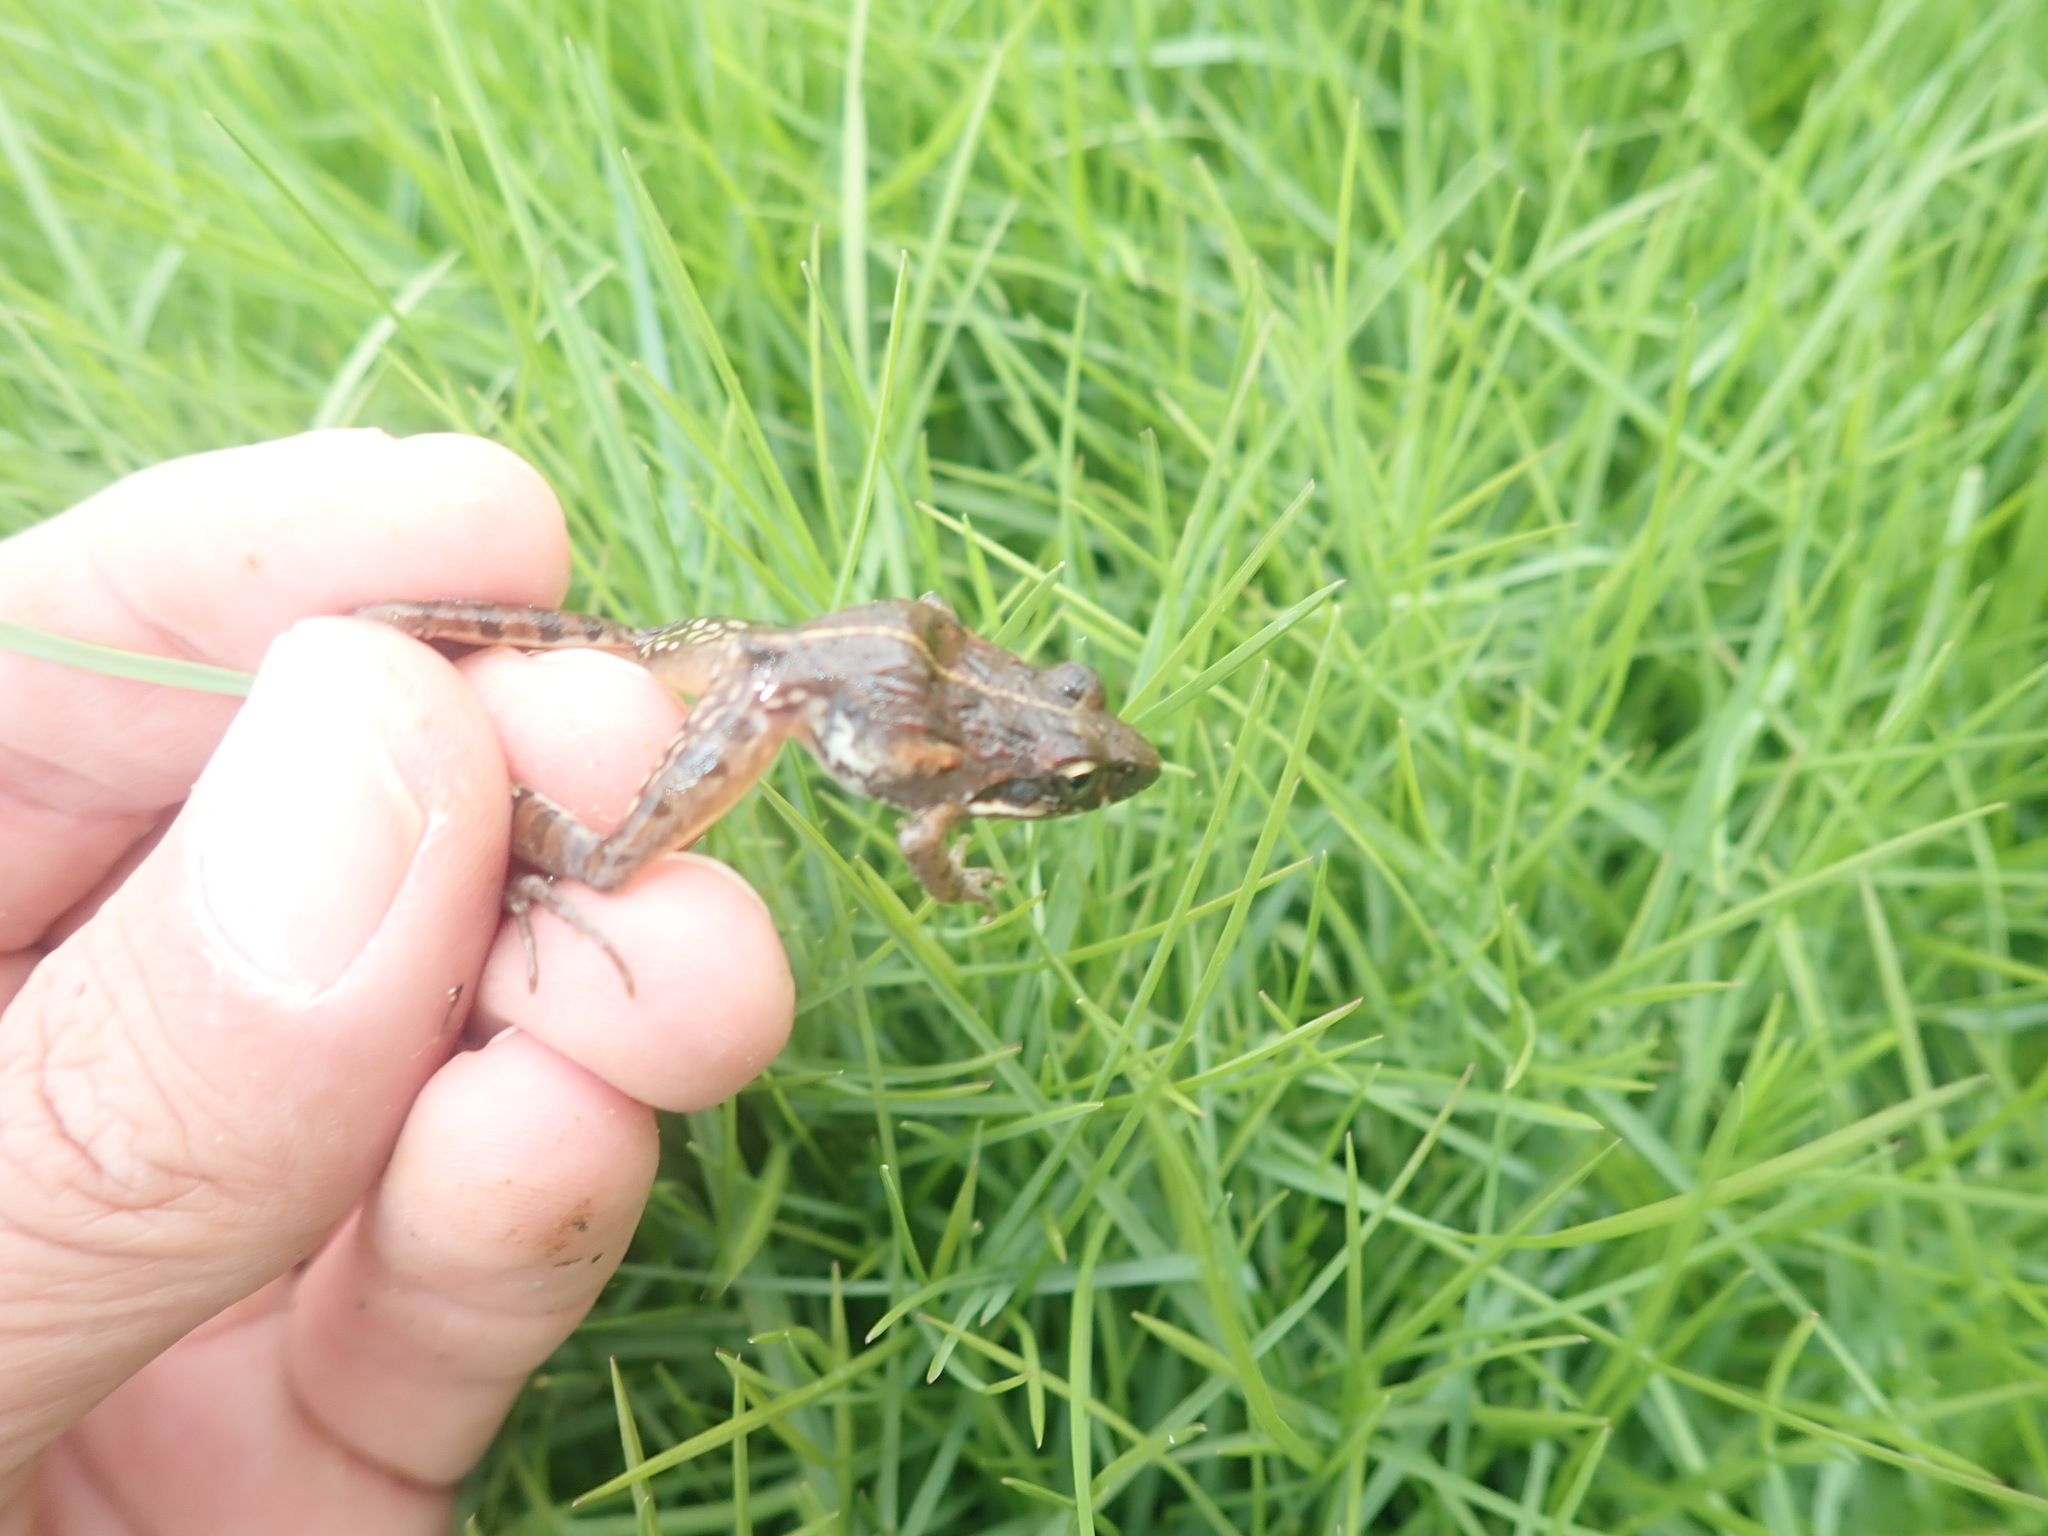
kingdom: Animalia
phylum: Chordata
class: Amphibia
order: Anura
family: Pyxicephalidae
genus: Strongylopus
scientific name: Strongylopus grayii
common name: Gray's stream frog
